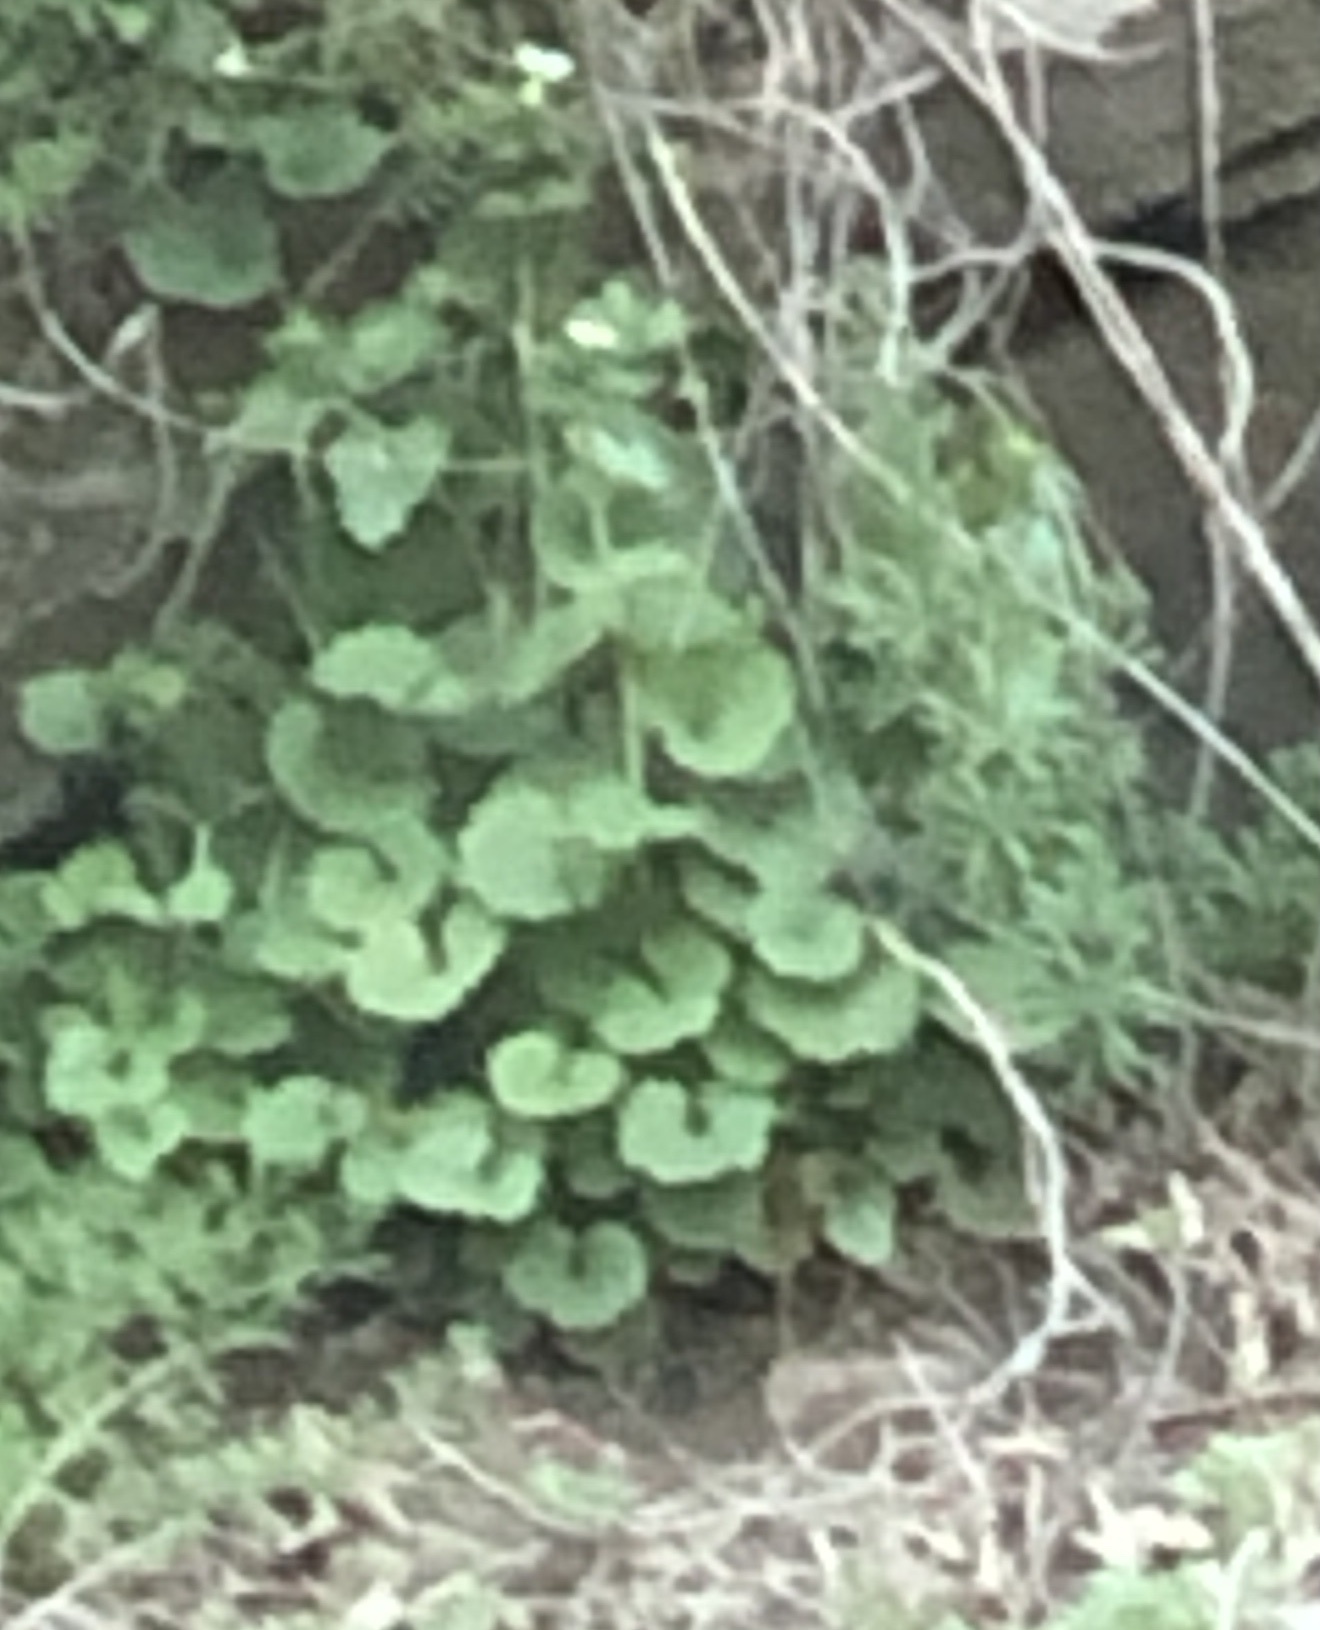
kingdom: Plantae
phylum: Tracheophyta
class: Magnoliopsida
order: Brassicales
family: Brassicaceae
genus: Alliaria
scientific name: Alliaria petiolata
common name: Garlic mustard
